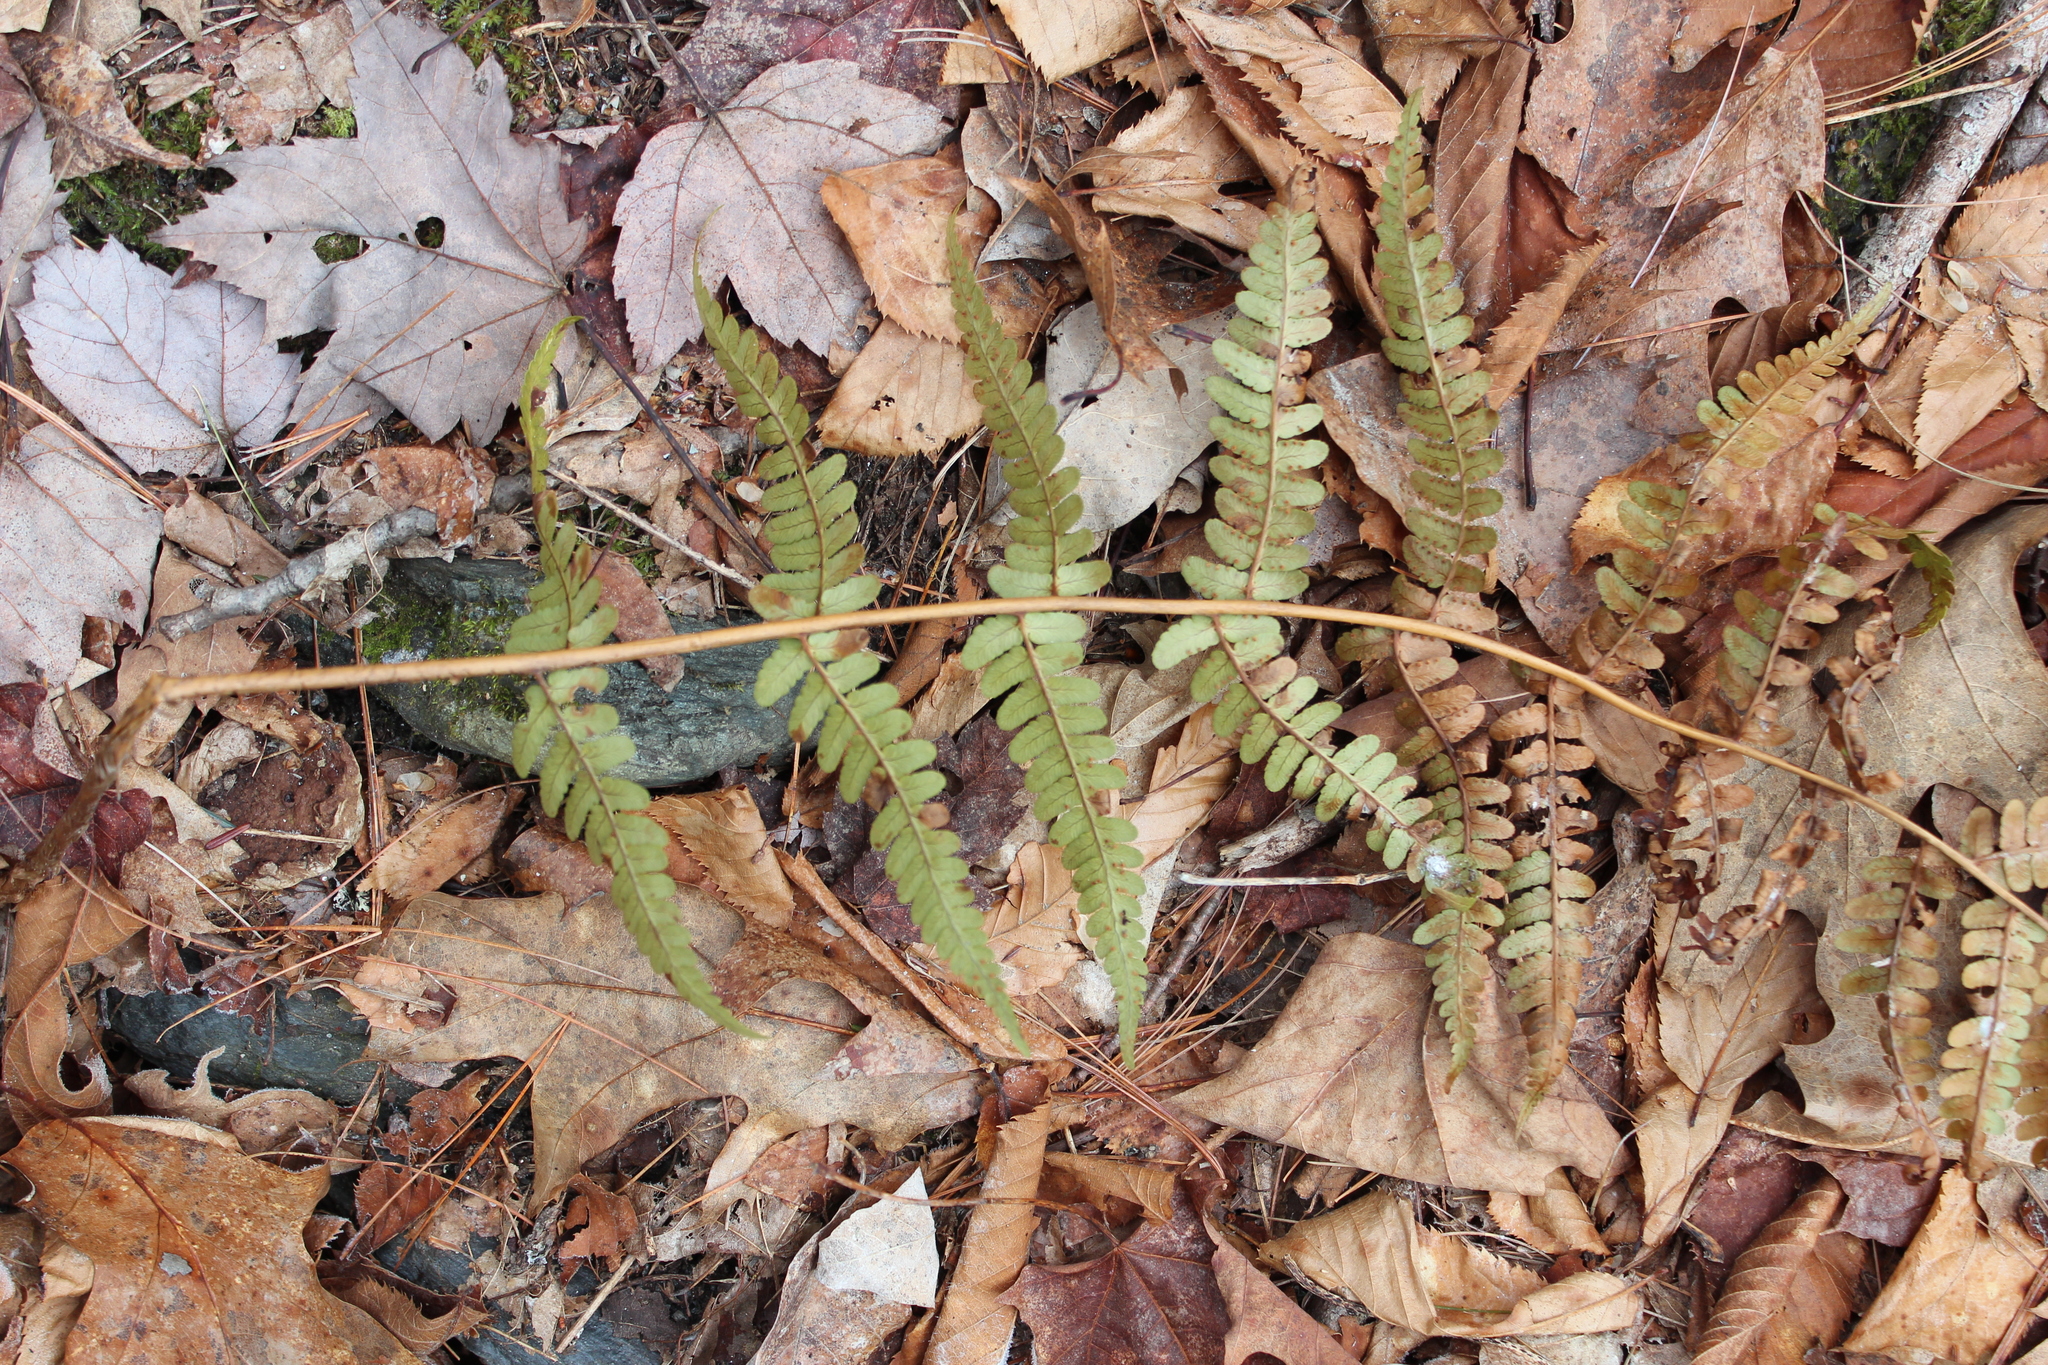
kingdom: Plantae
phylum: Tracheophyta
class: Polypodiopsida
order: Polypodiales
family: Dryopteridaceae
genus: Dryopteris
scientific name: Dryopteris marginalis
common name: Marginal wood fern
